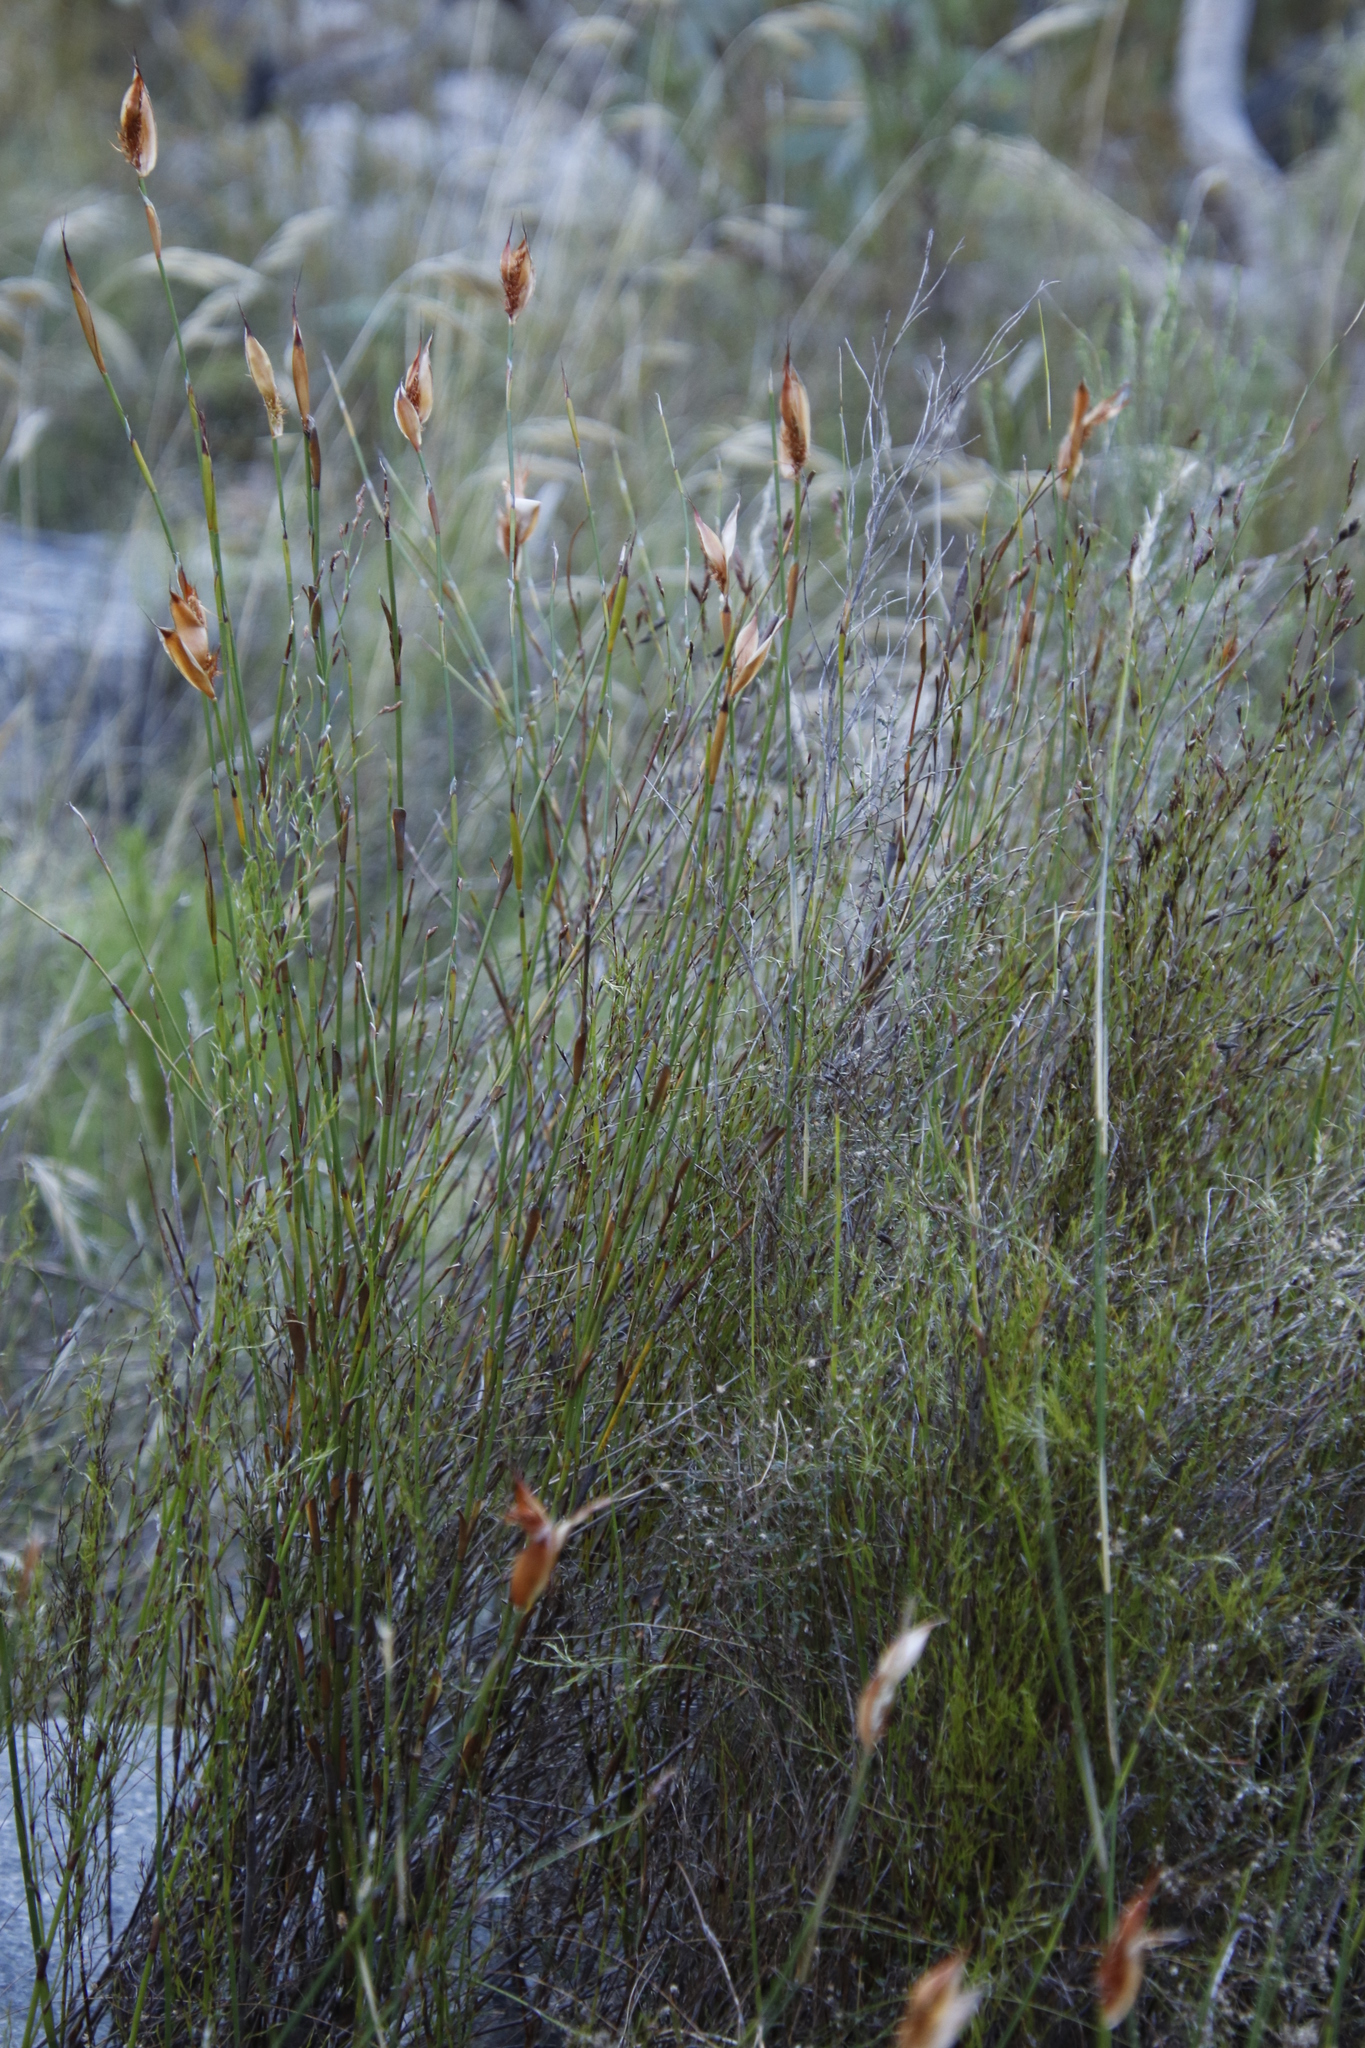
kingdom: Plantae
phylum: Tracheophyta
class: Liliopsida
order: Poales
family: Restionaceae
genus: Willdenowia
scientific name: Willdenowia glomerata
